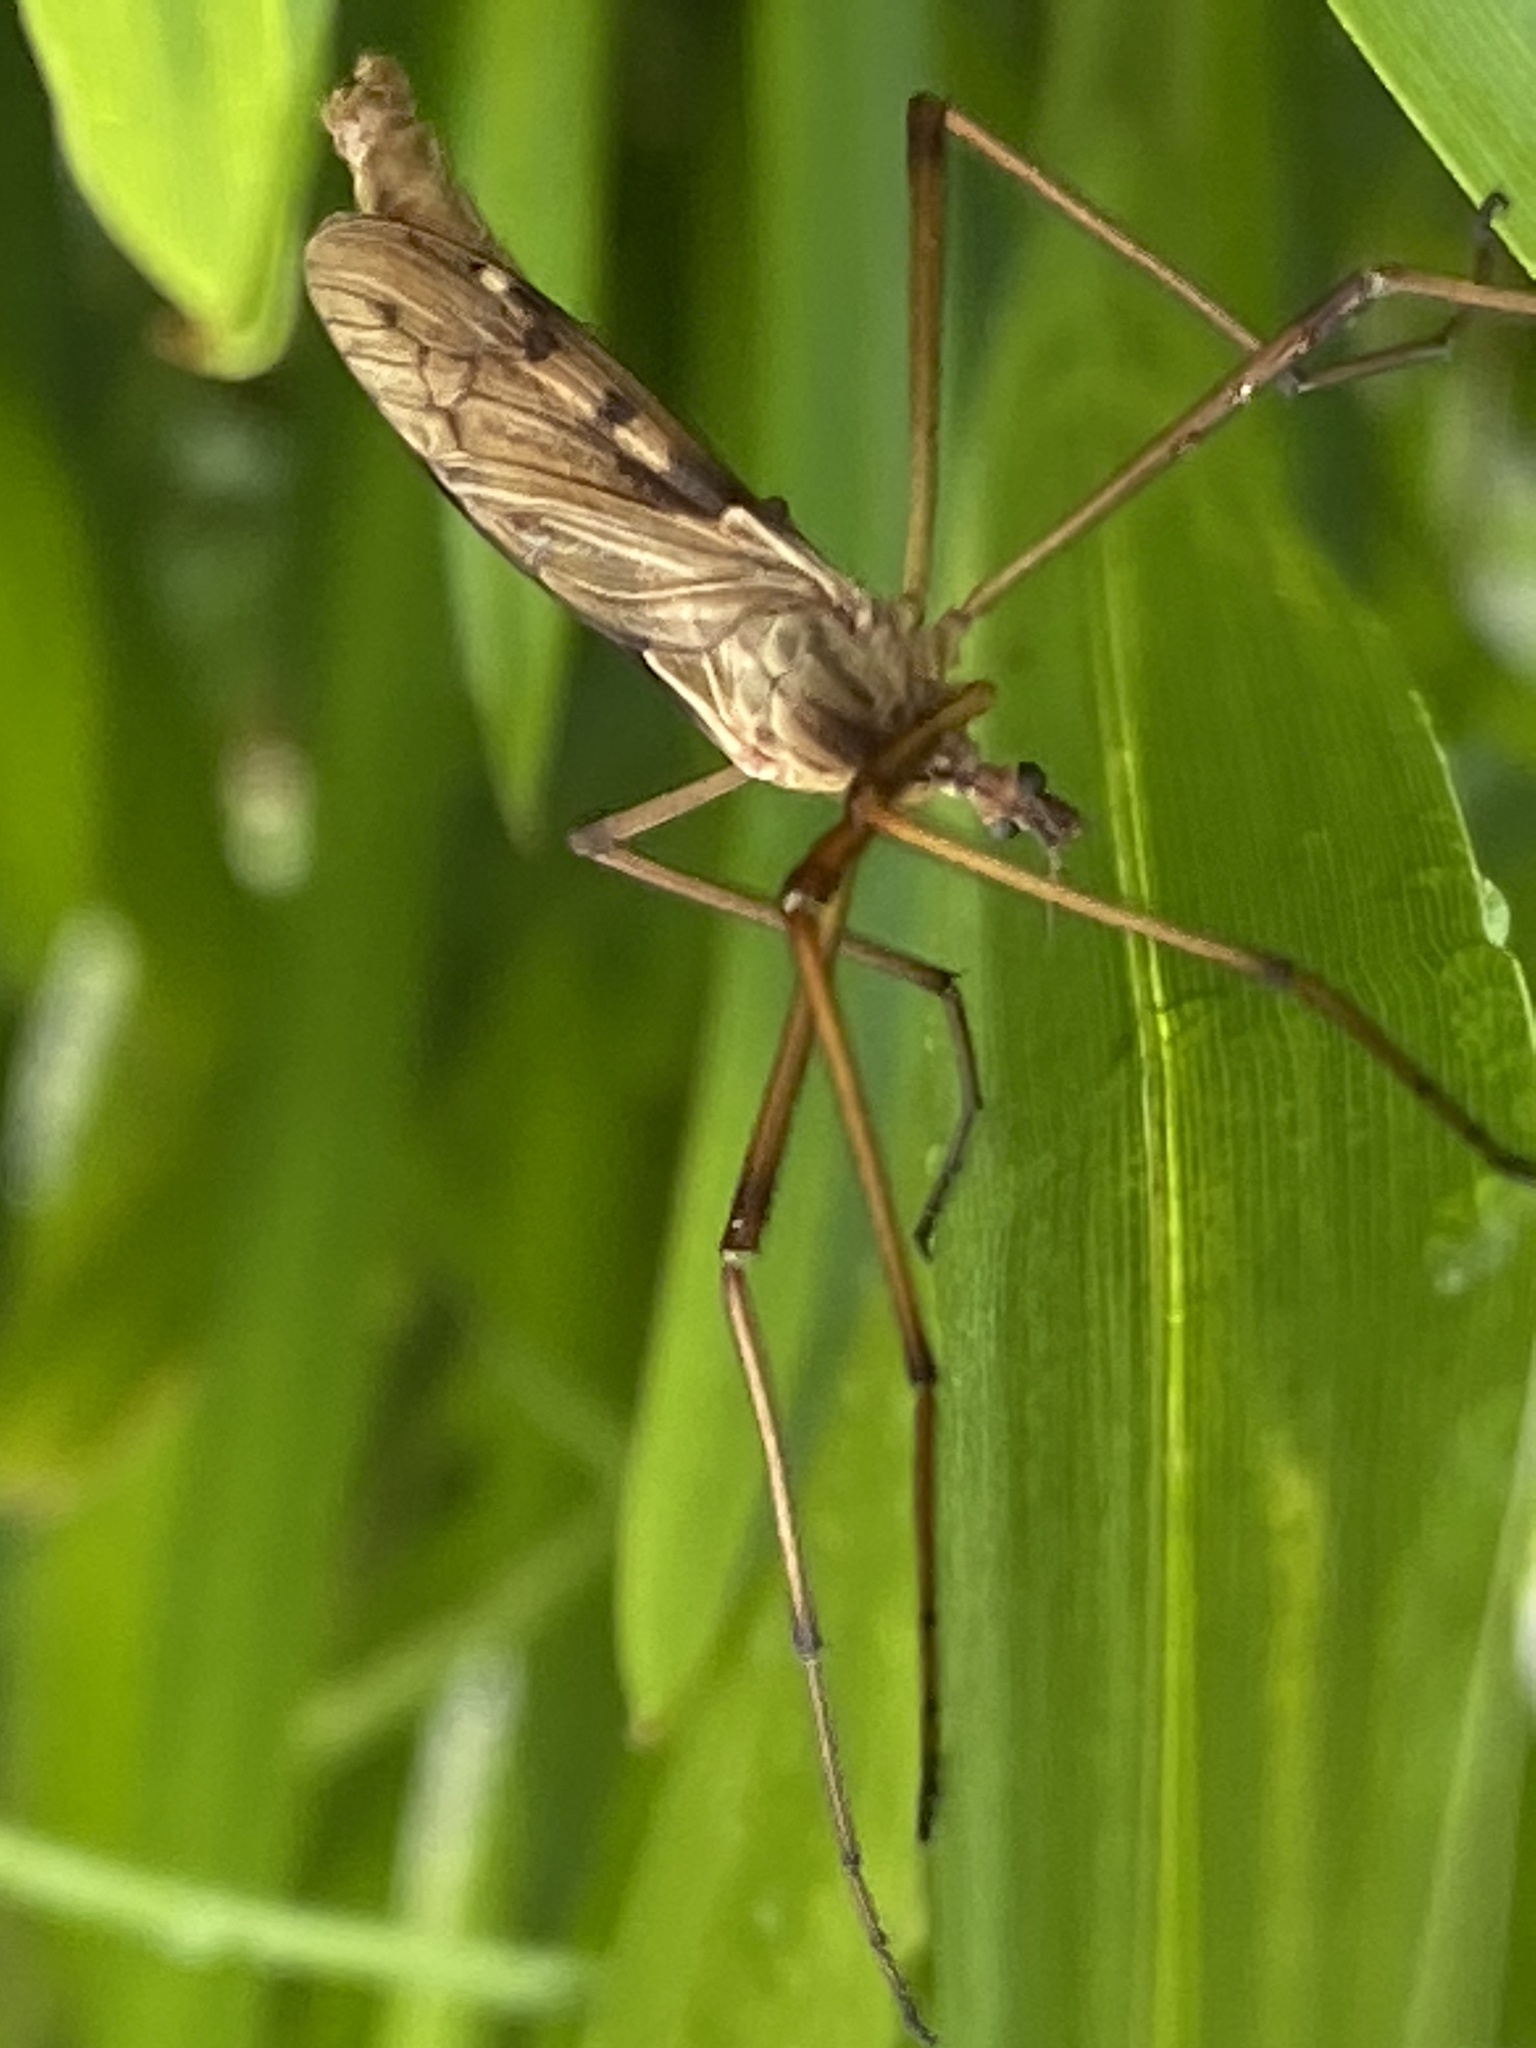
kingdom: Animalia
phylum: Arthropoda
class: Insecta
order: Diptera
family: Limoniidae
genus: Eutonia
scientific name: Eutonia barbipes
